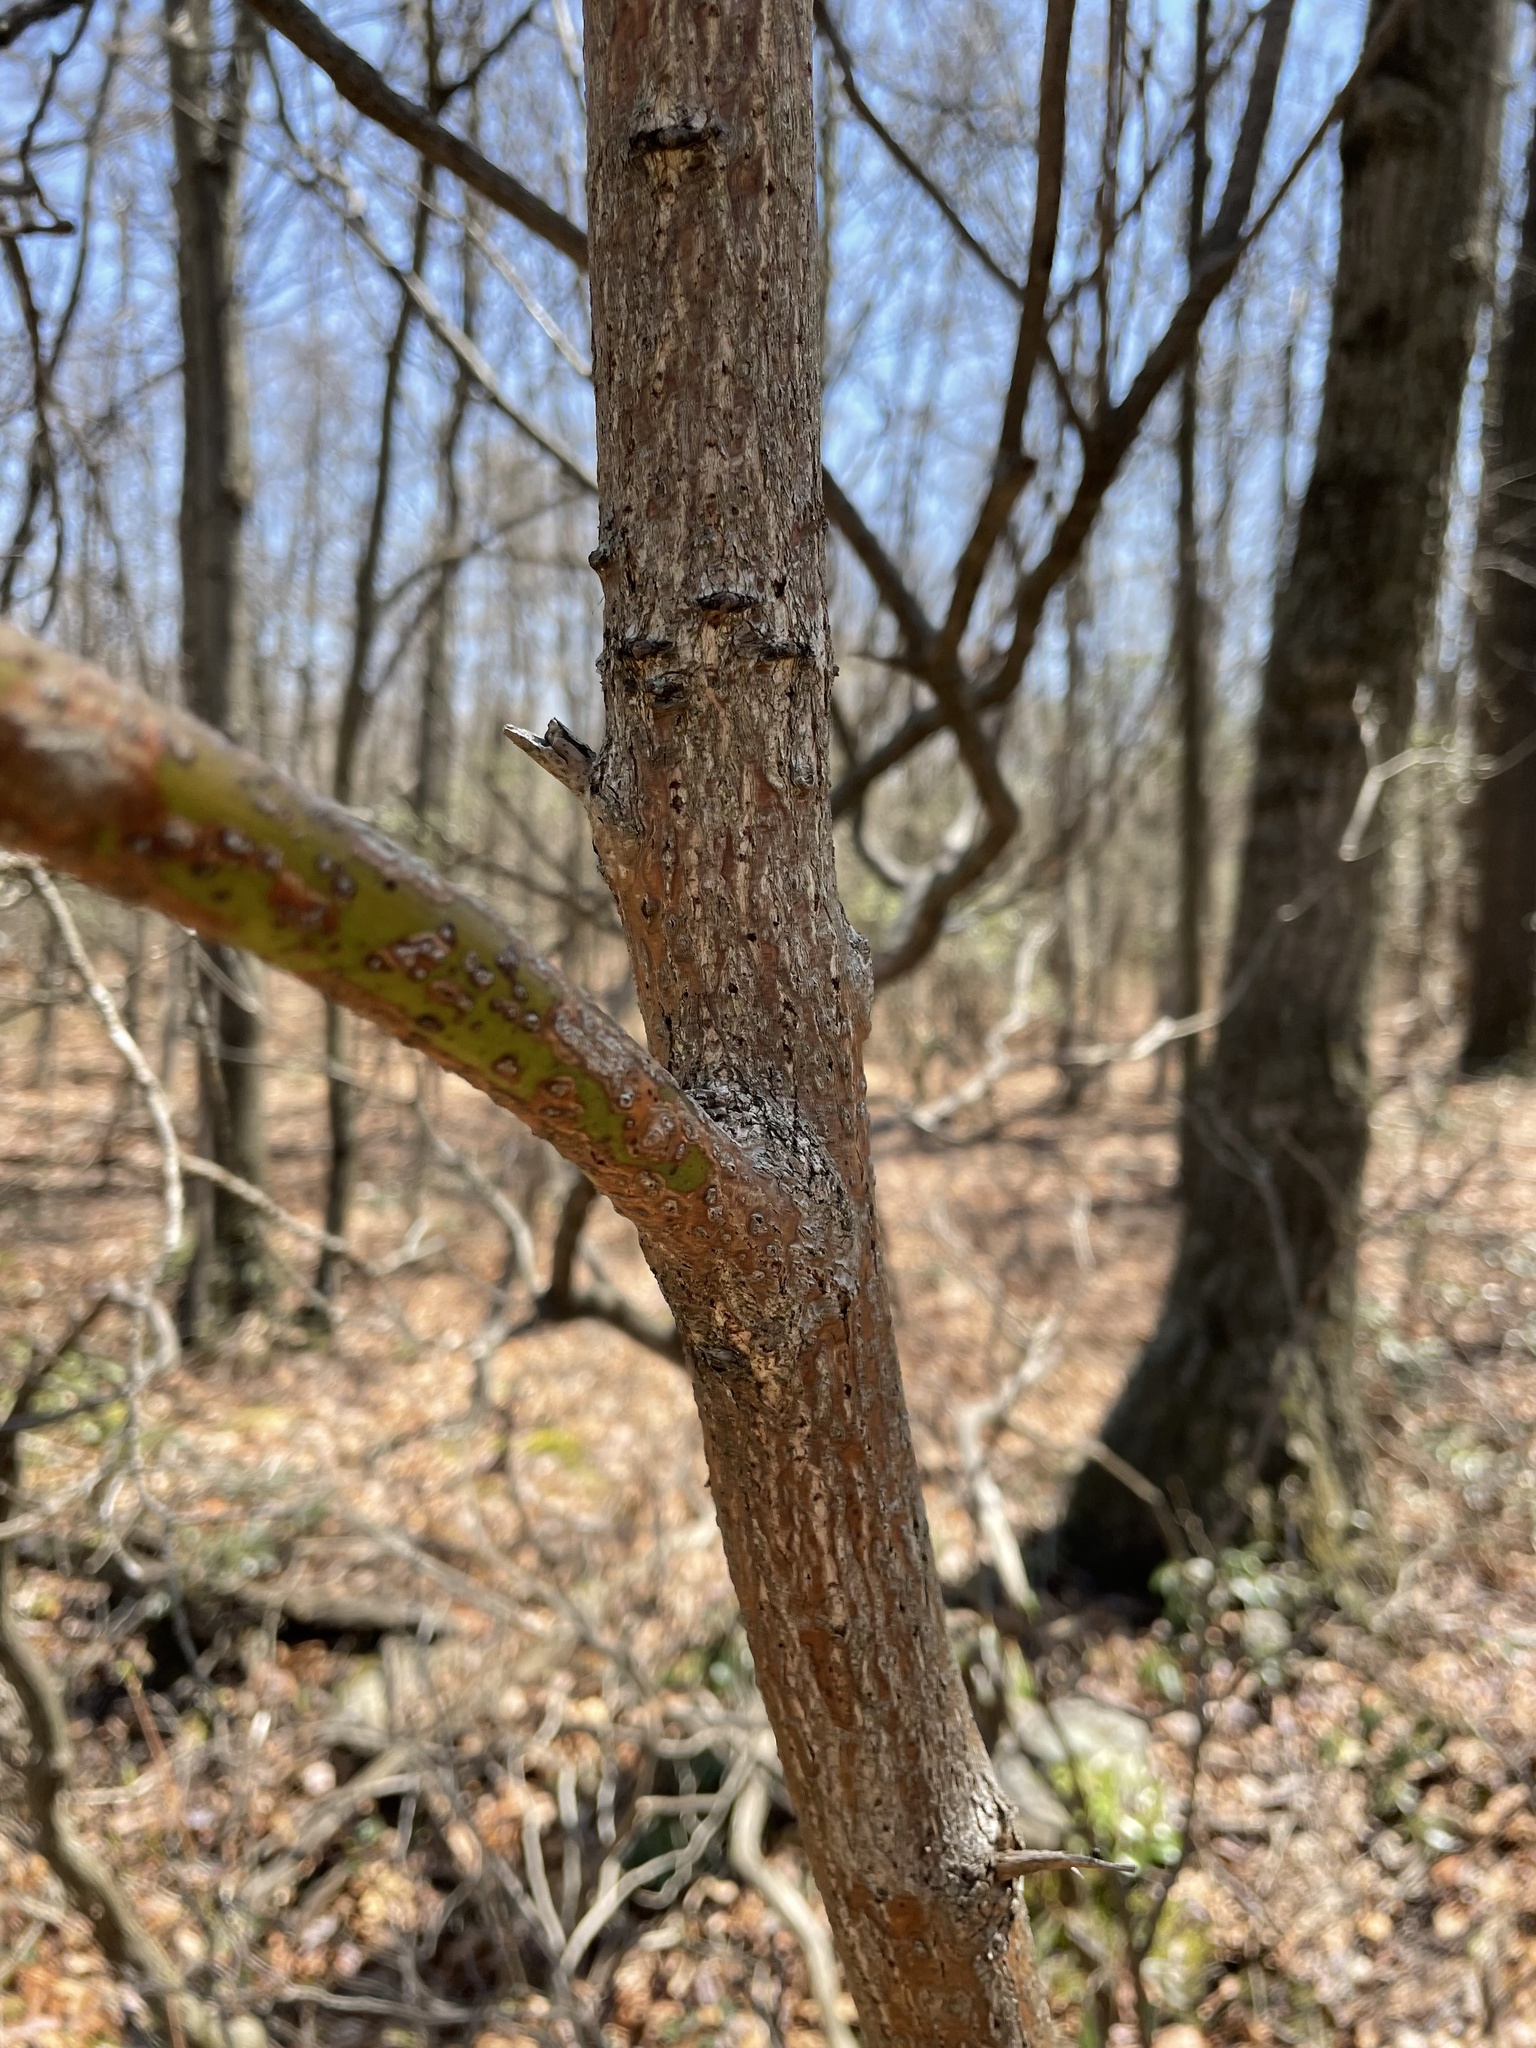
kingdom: Plantae
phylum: Tracheophyta
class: Magnoliopsida
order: Laurales
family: Lauraceae
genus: Sassafras
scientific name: Sassafras albidum
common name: Sassafras
